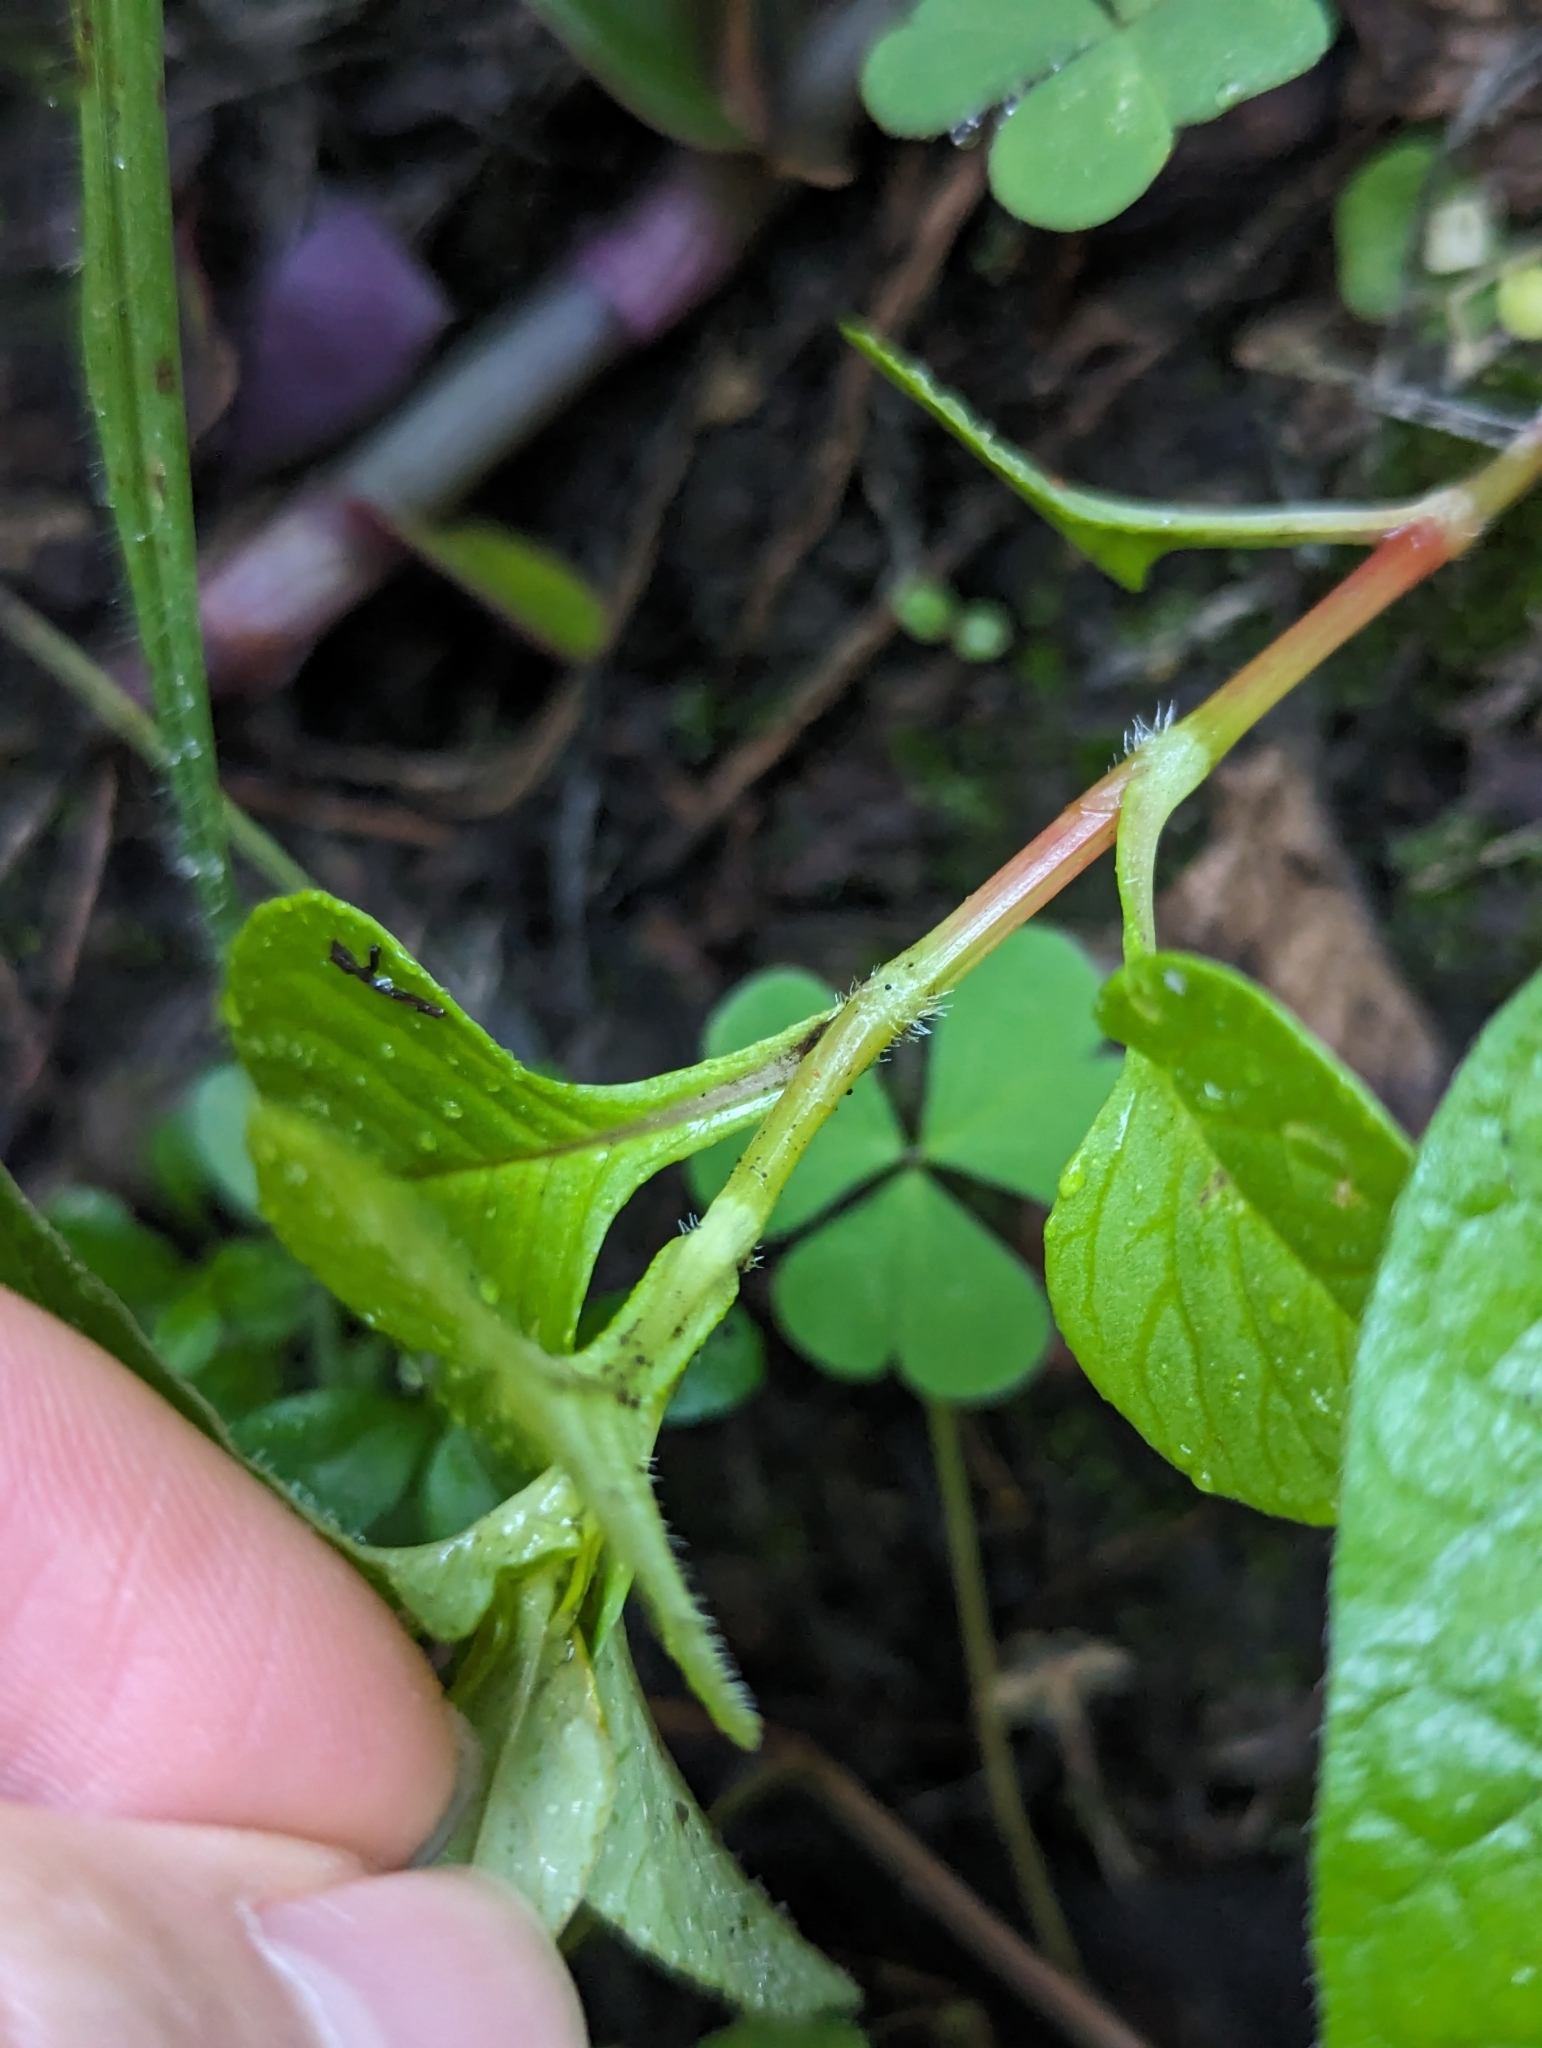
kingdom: Plantae
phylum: Tracheophyta
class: Magnoliopsida
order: Caryophyllales
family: Polygonaceae
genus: Persicaria
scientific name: Persicaria nepalensis
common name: Nepal persicaria
